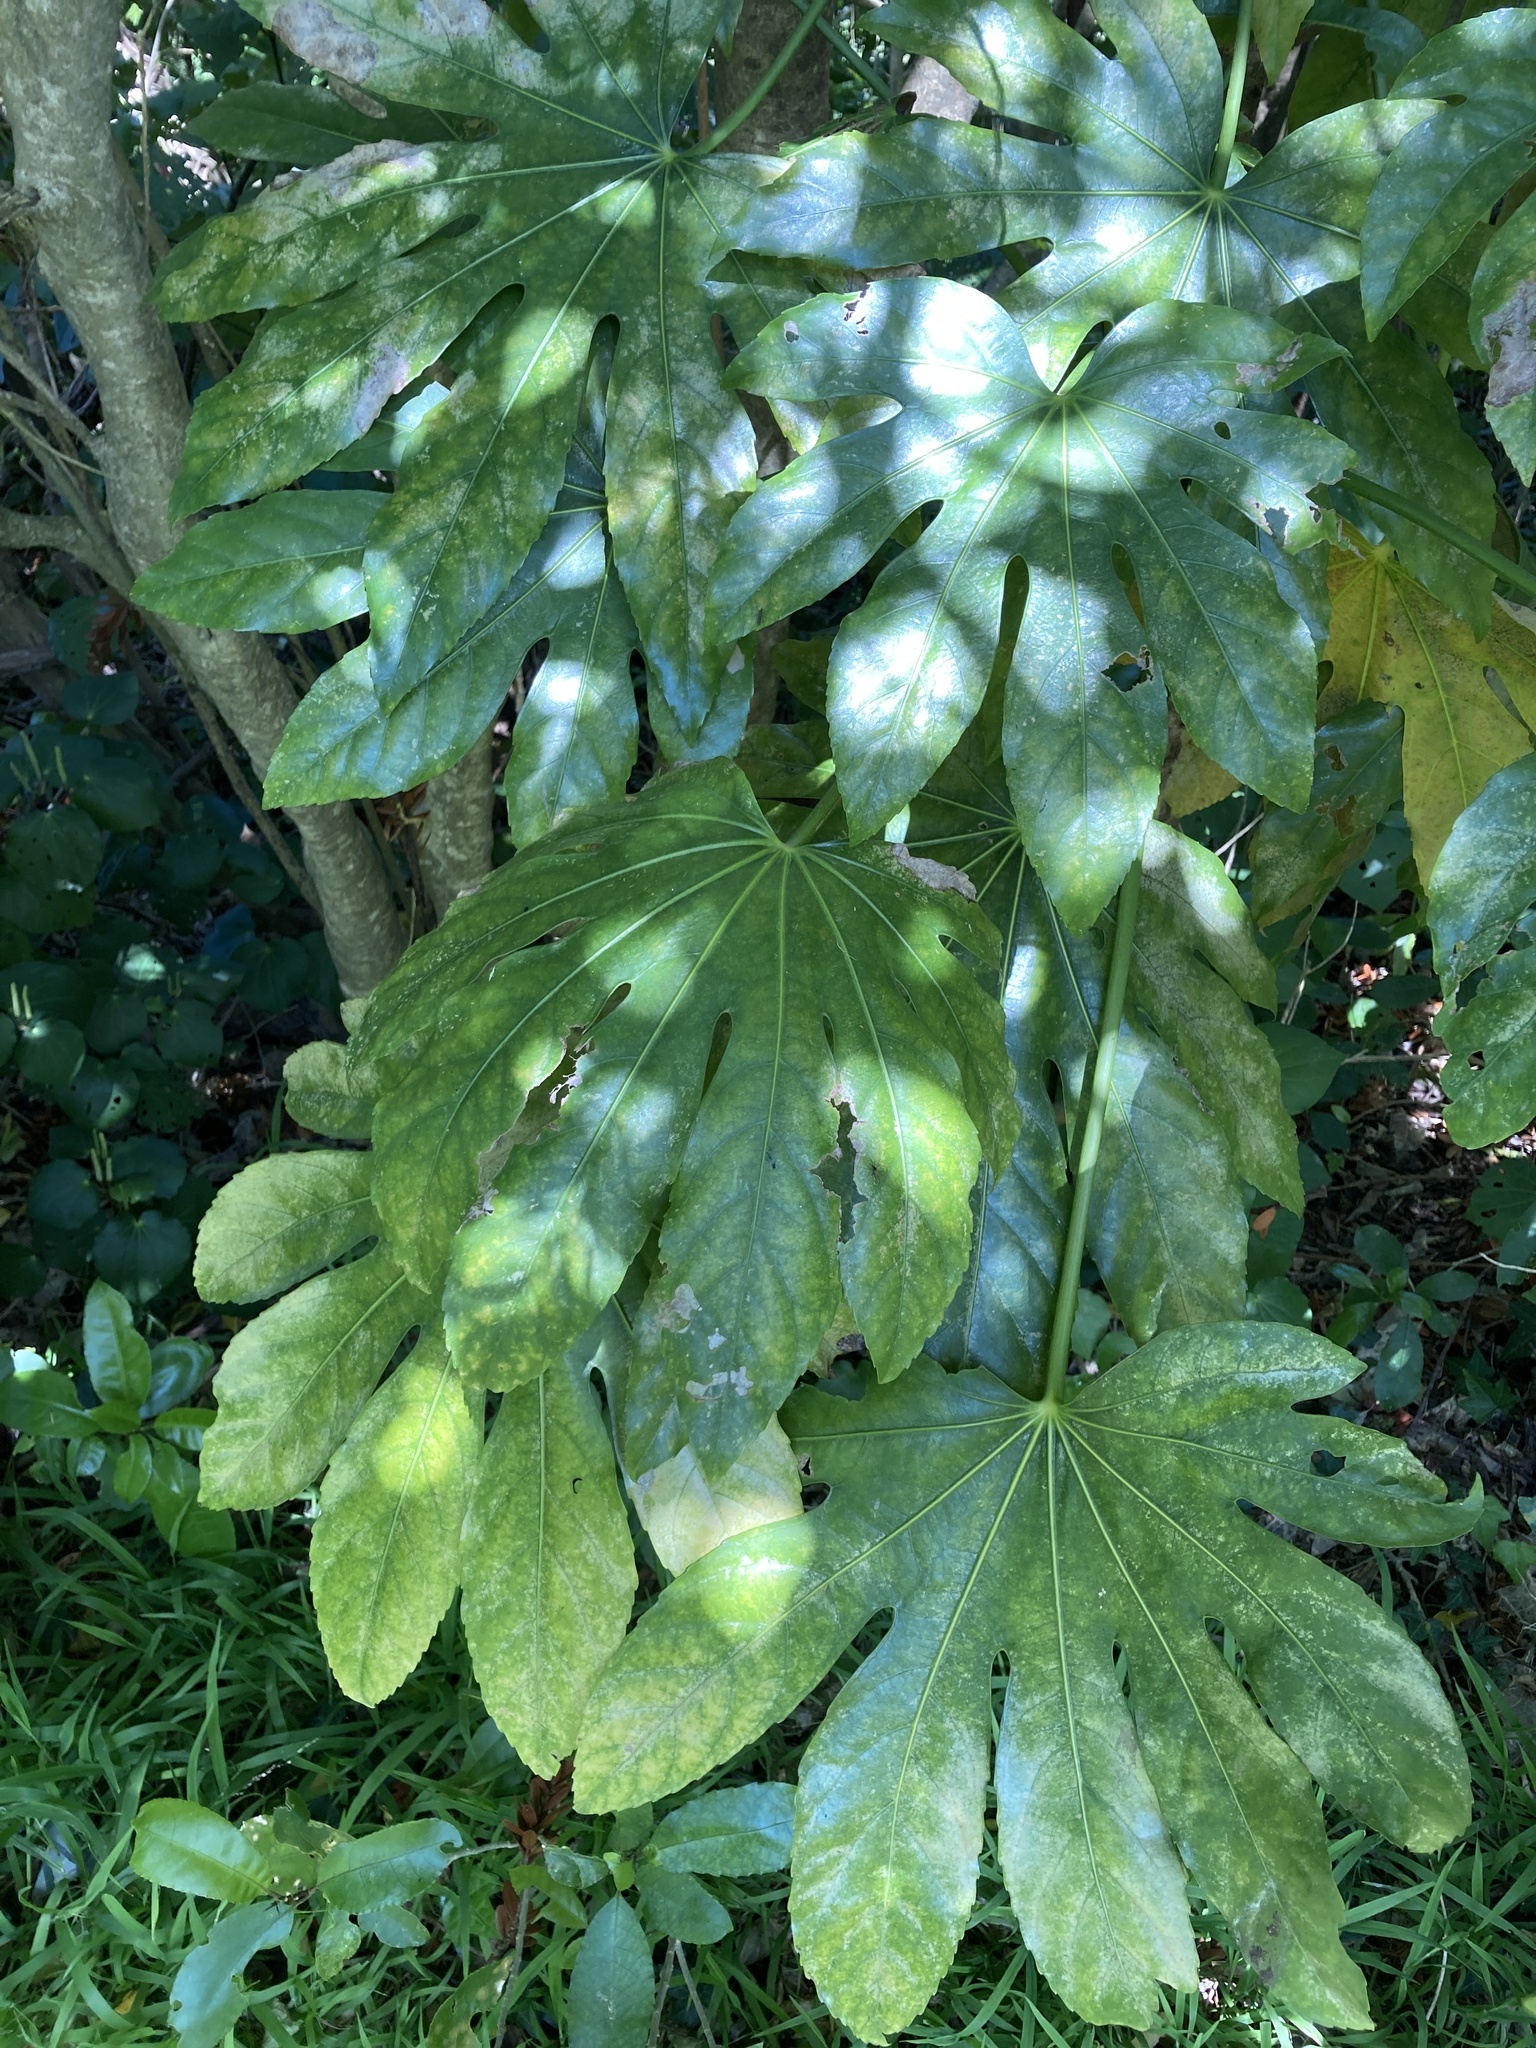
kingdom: Plantae
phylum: Tracheophyta
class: Magnoliopsida
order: Apiales
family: Araliaceae
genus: Fatsia
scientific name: Fatsia japonica
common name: Fatsia
